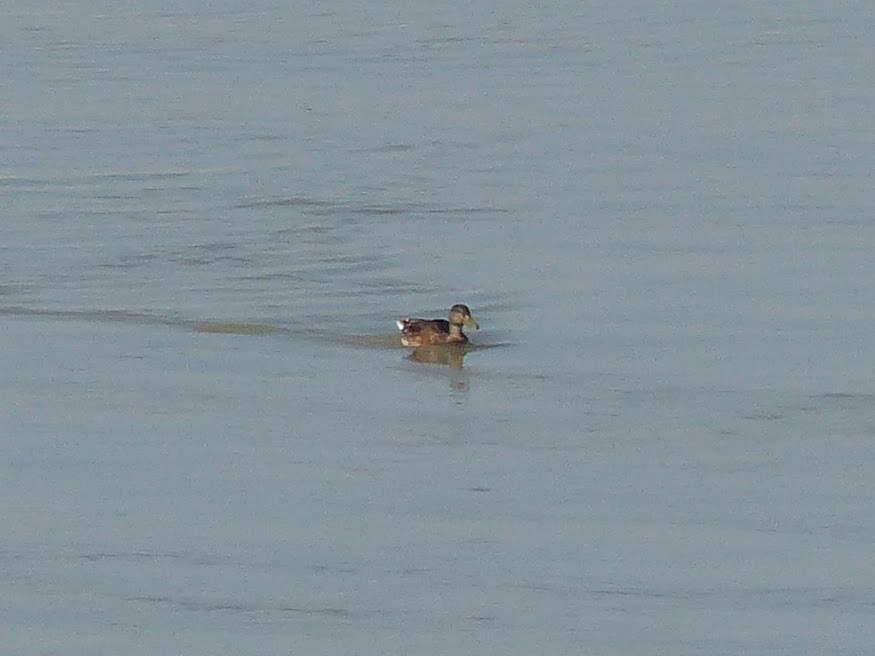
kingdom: Animalia
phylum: Chordata
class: Aves
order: Anseriformes
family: Anatidae
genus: Anas
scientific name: Anas platyrhynchos
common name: Mallard
